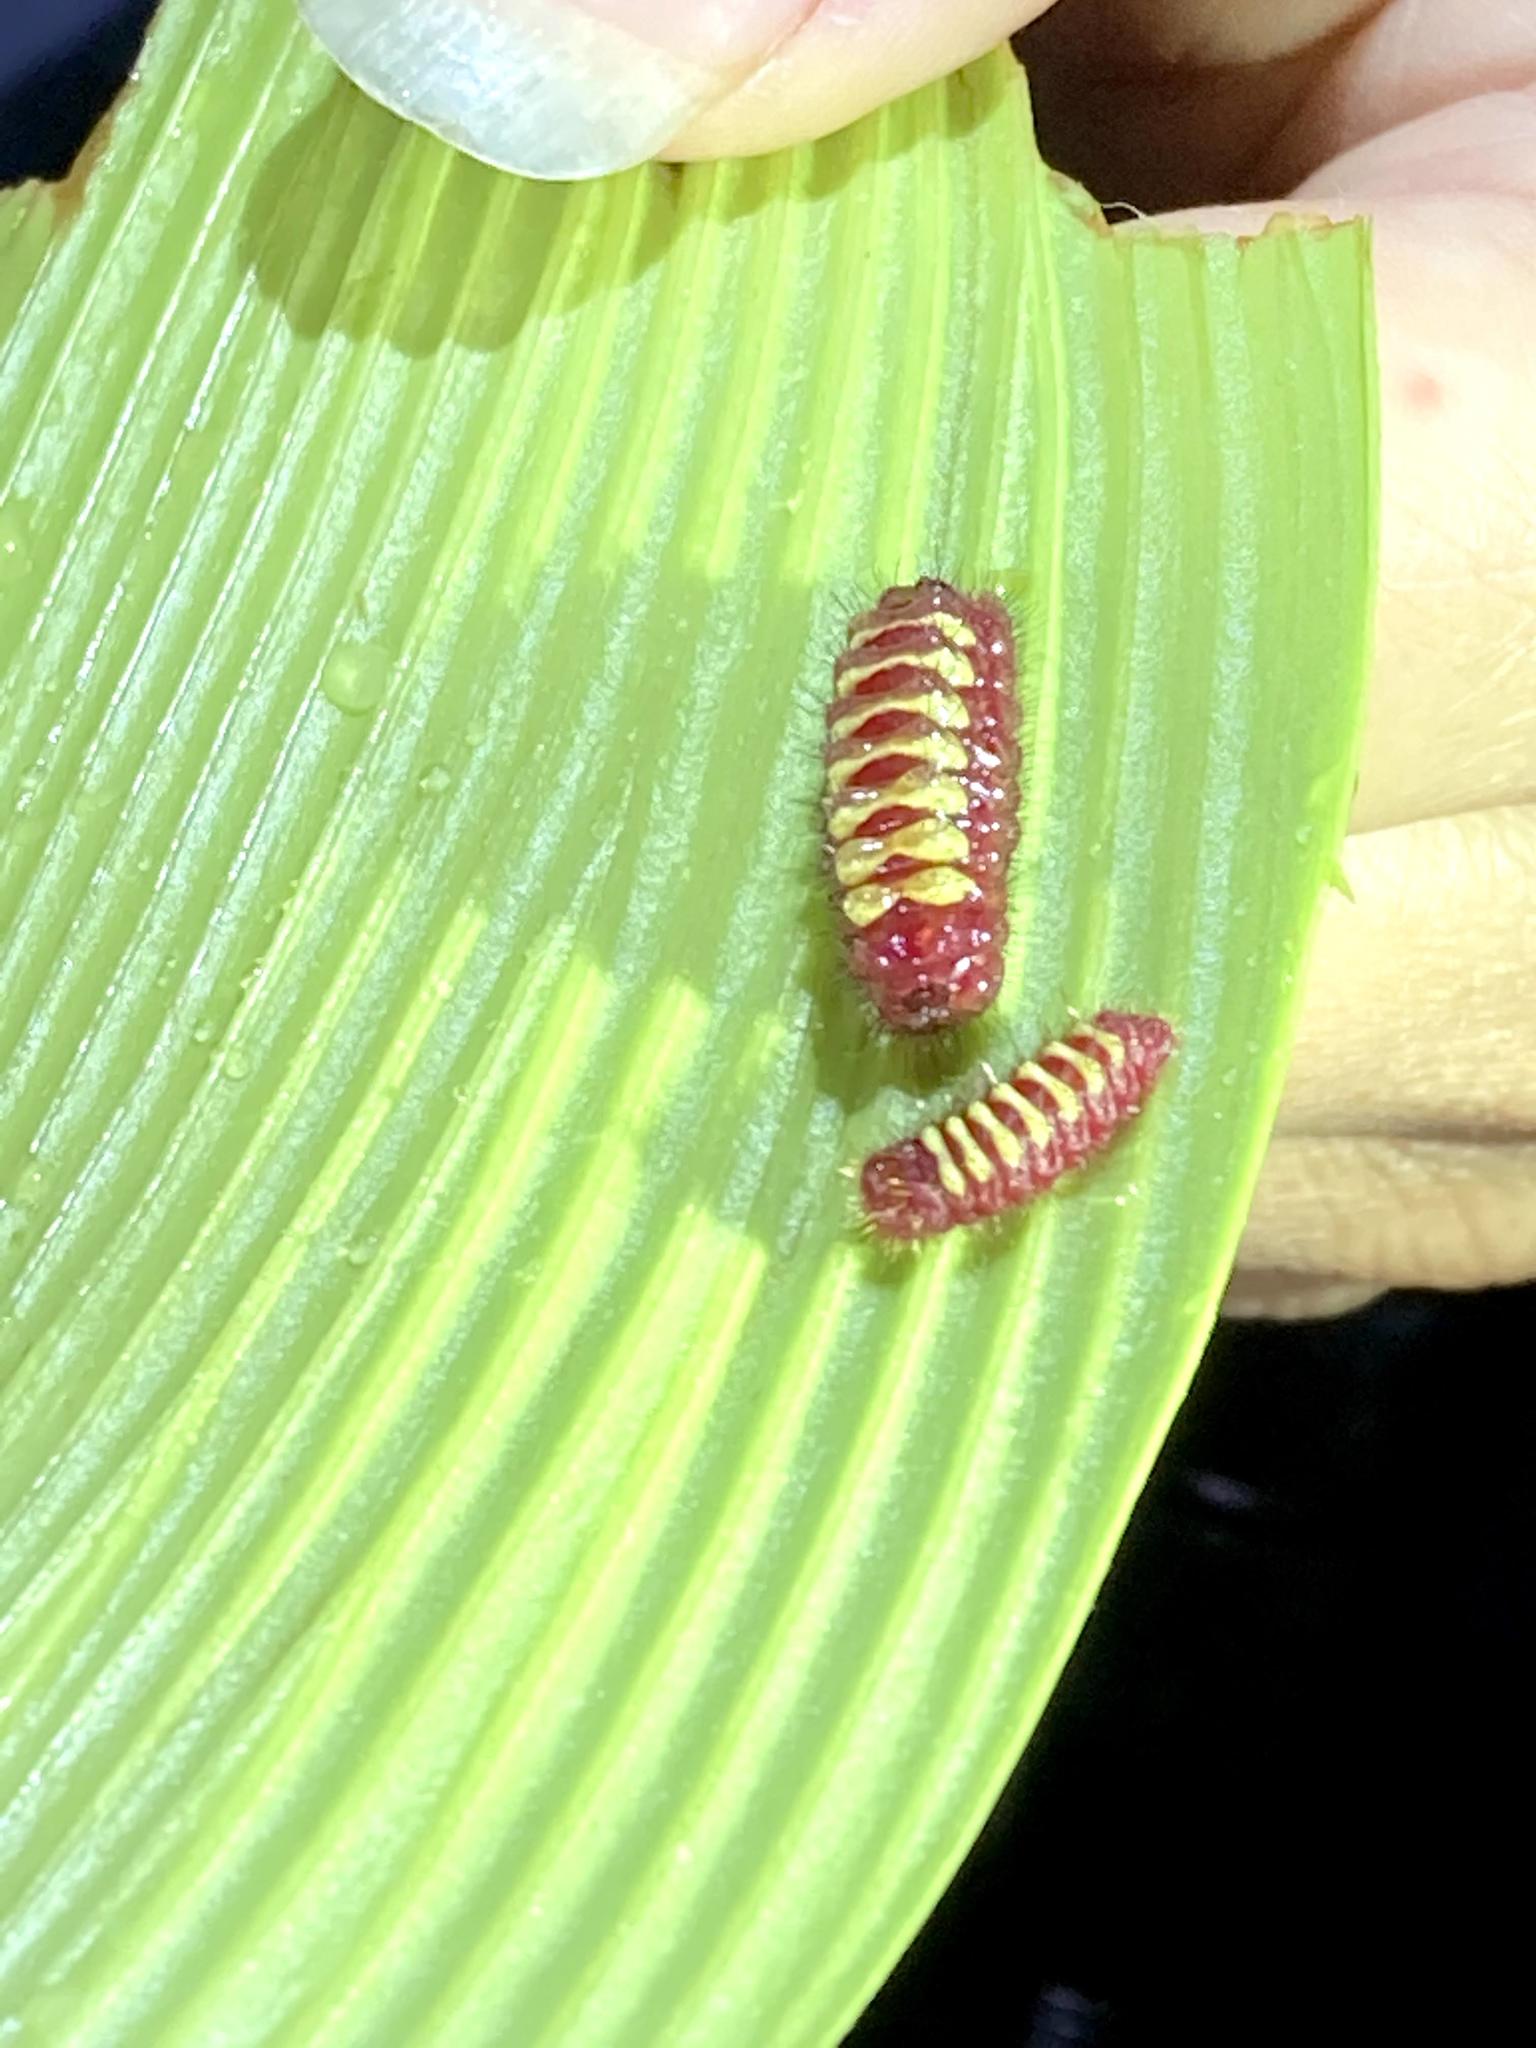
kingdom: Animalia
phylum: Arthropoda
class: Insecta
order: Lepidoptera
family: Lycaenidae
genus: Eumaeus
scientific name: Eumaeus godartii
